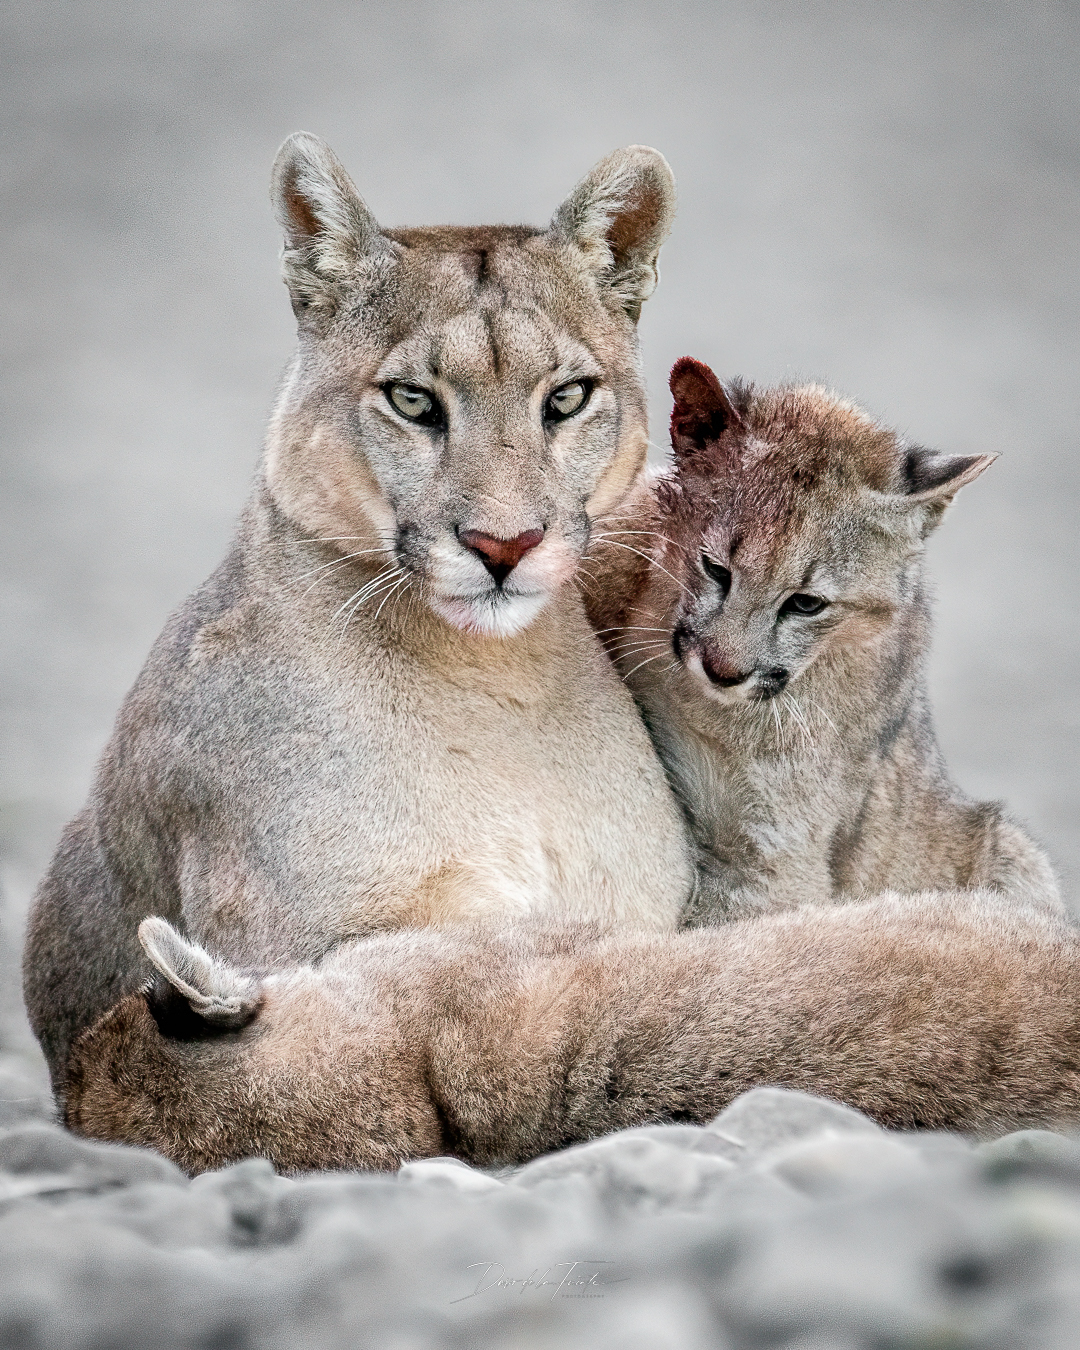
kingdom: Animalia
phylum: Chordata
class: Mammalia
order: Carnivora
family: Felidae
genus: Puma
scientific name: Puma concolor
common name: Puma
